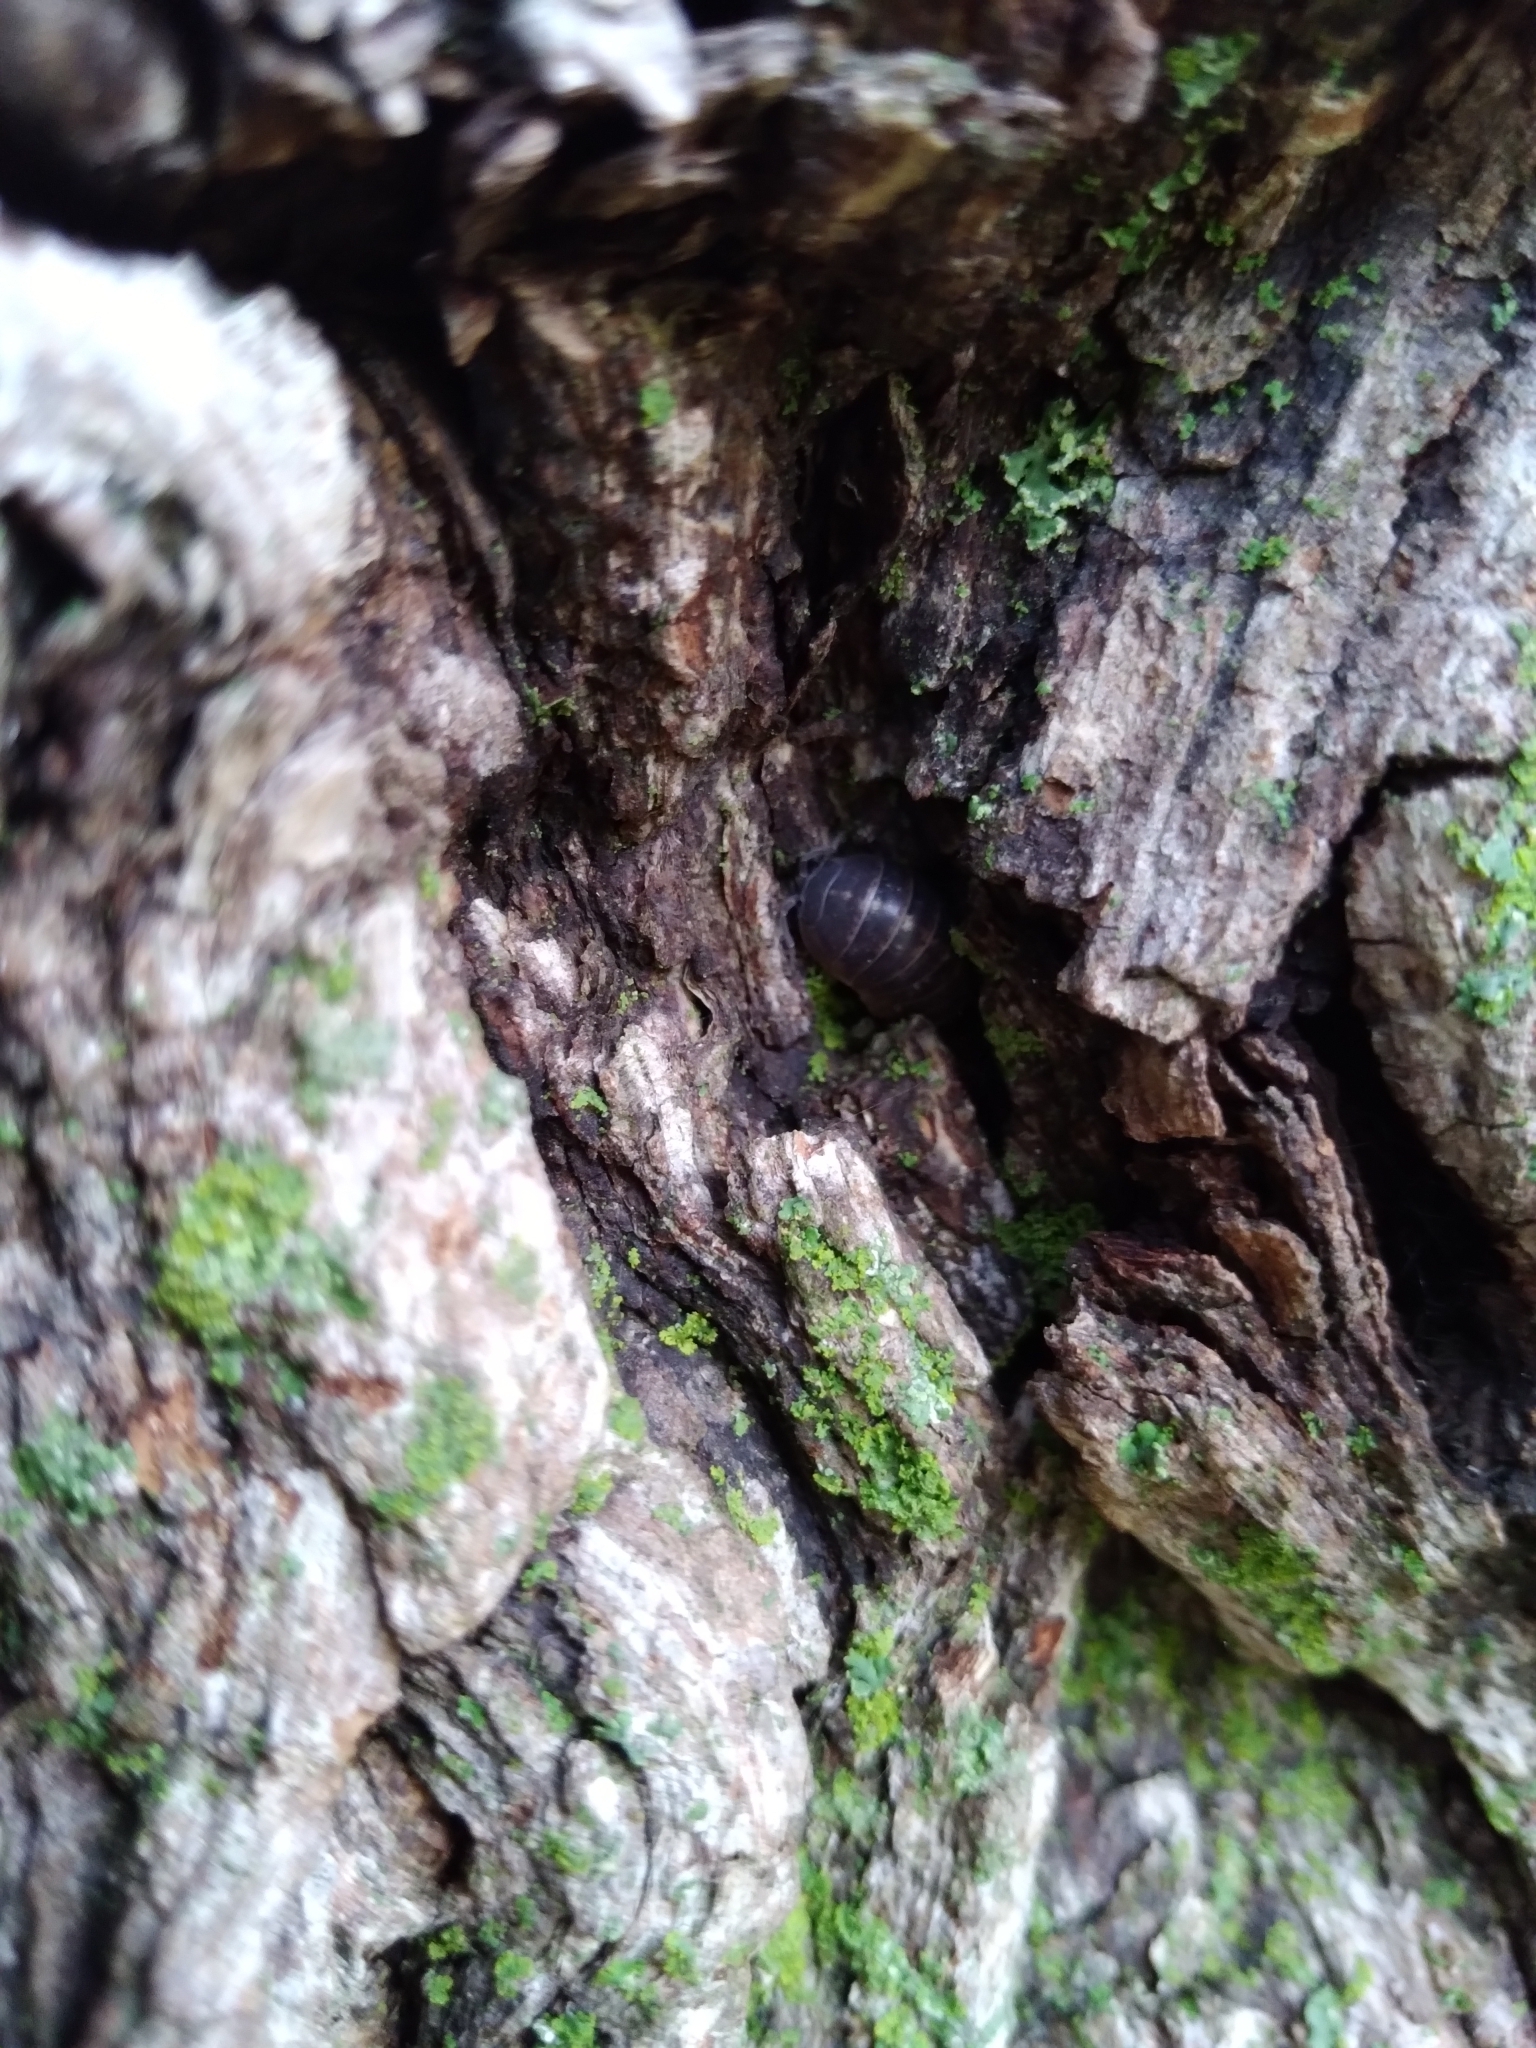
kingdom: Animalia
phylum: Arthropoda
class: Malacostraca
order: Isopoda
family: Armadillidiidae
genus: Armadillidium
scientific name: Armadillidium vulgare
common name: Common pill woodlouse
